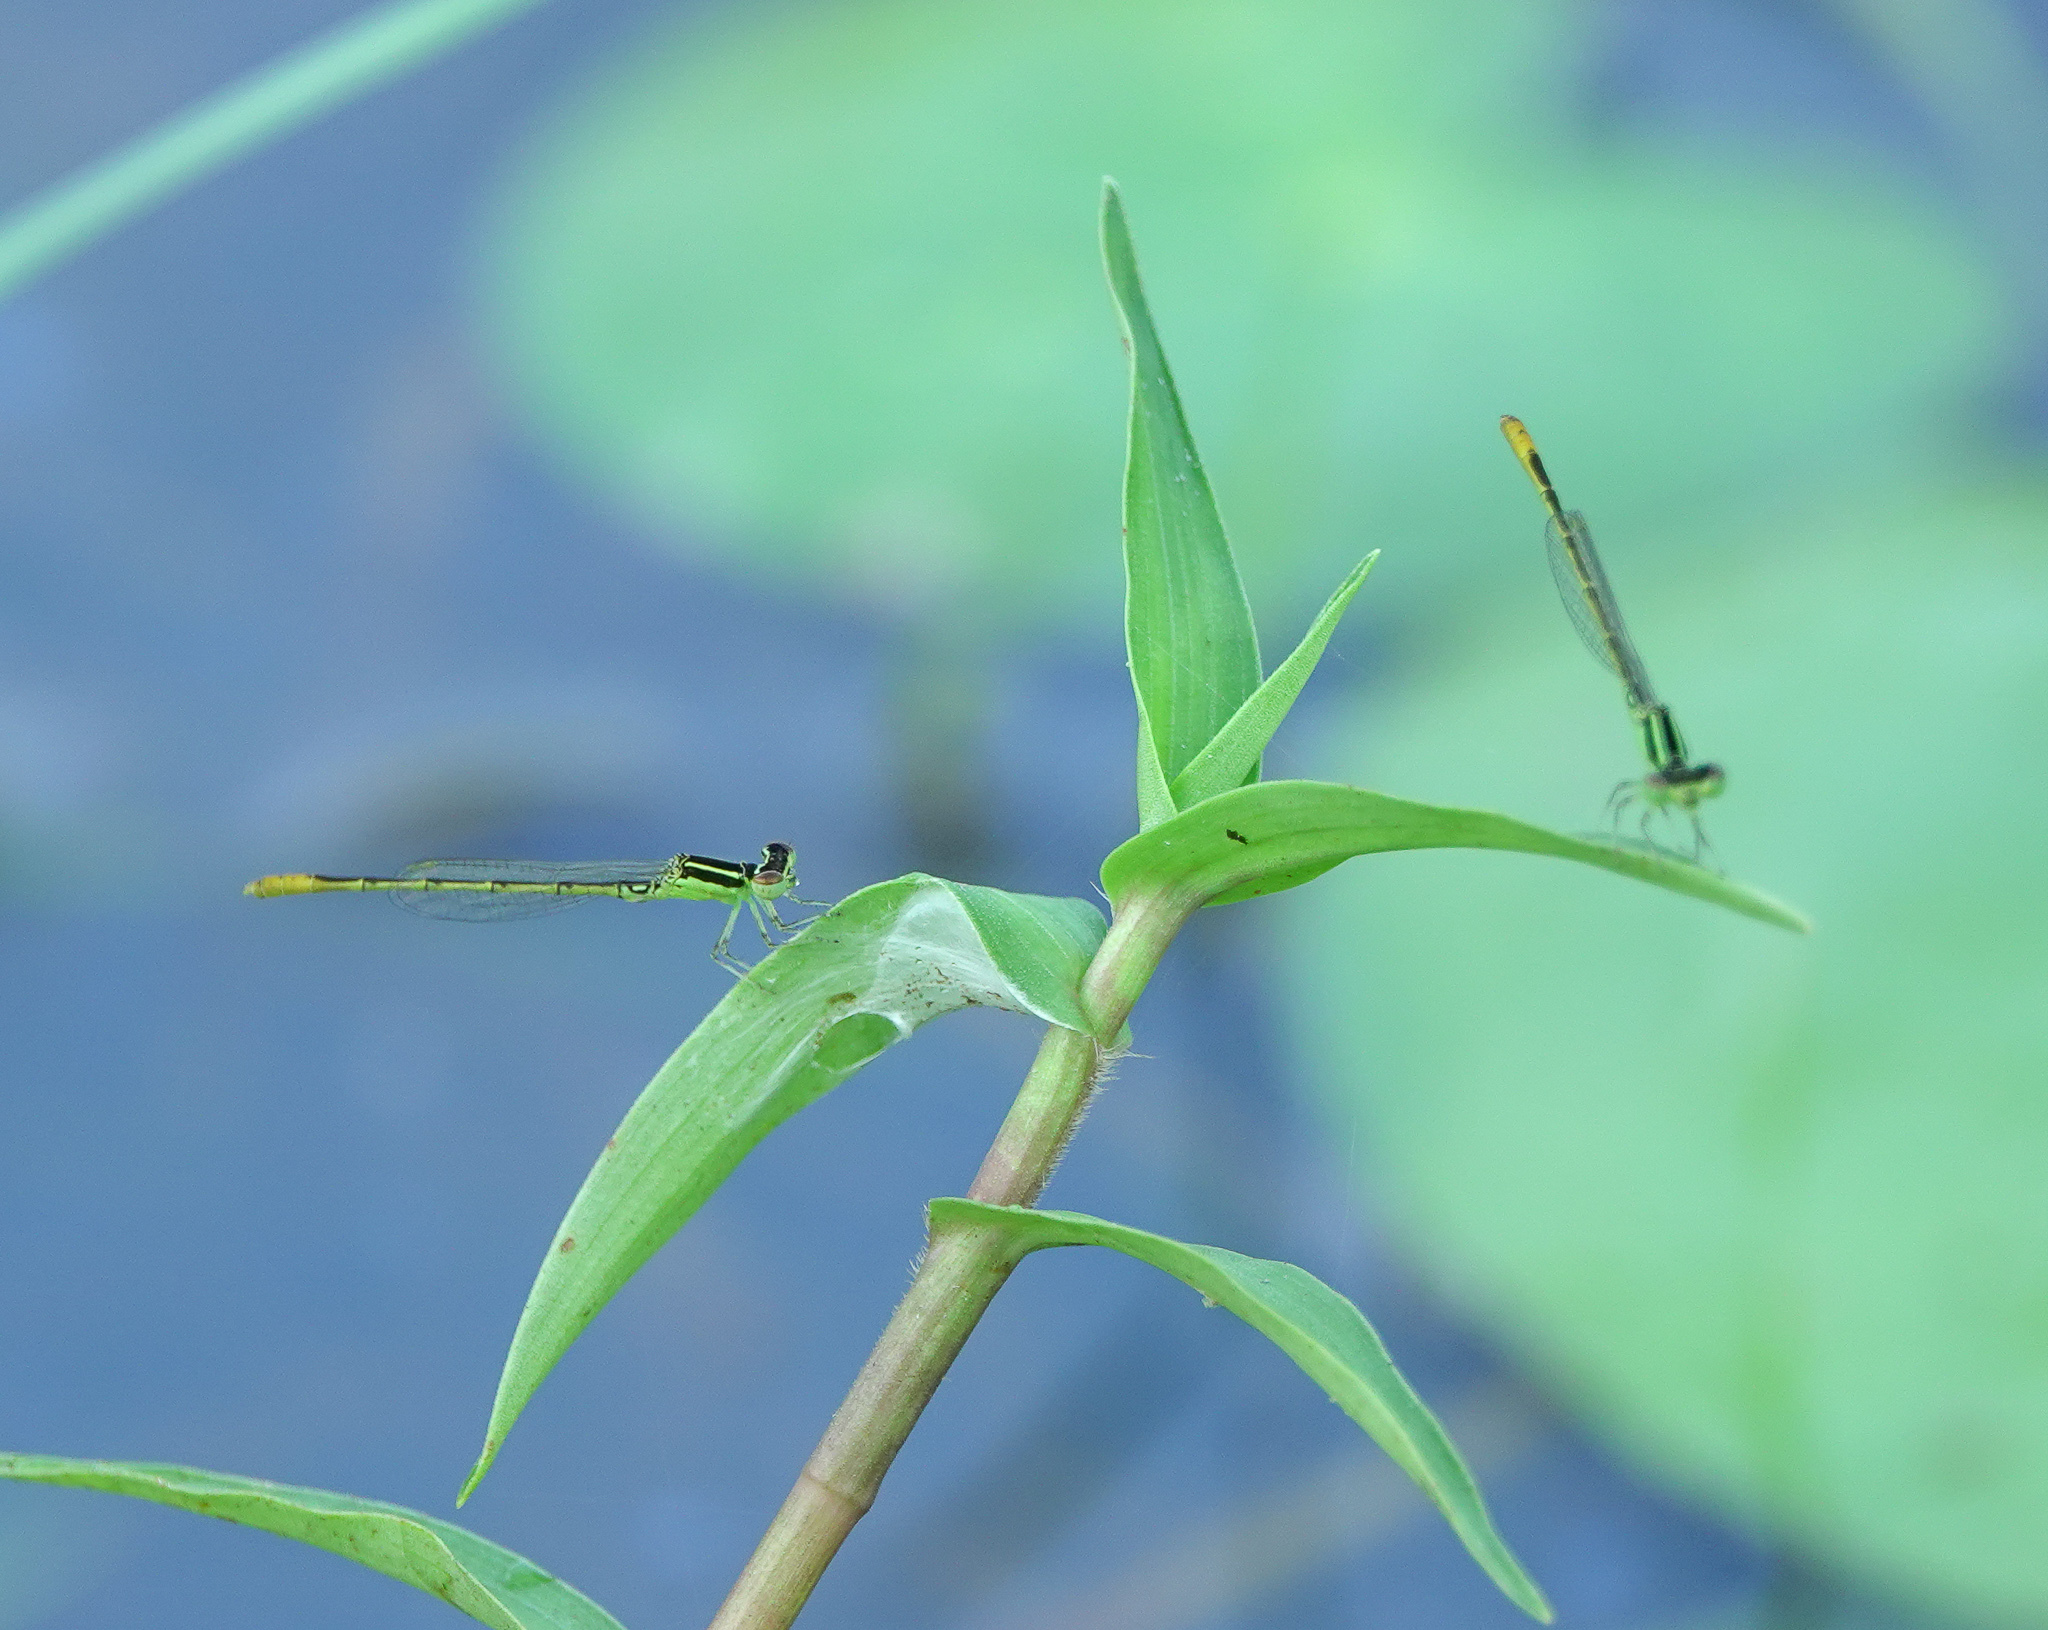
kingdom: Animalia
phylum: Arthropoda
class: Insecta
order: Odonata
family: Coenagrionidae
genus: Agriocnemis
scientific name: Agriocnemis pygmaea
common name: Pygmy wisp
